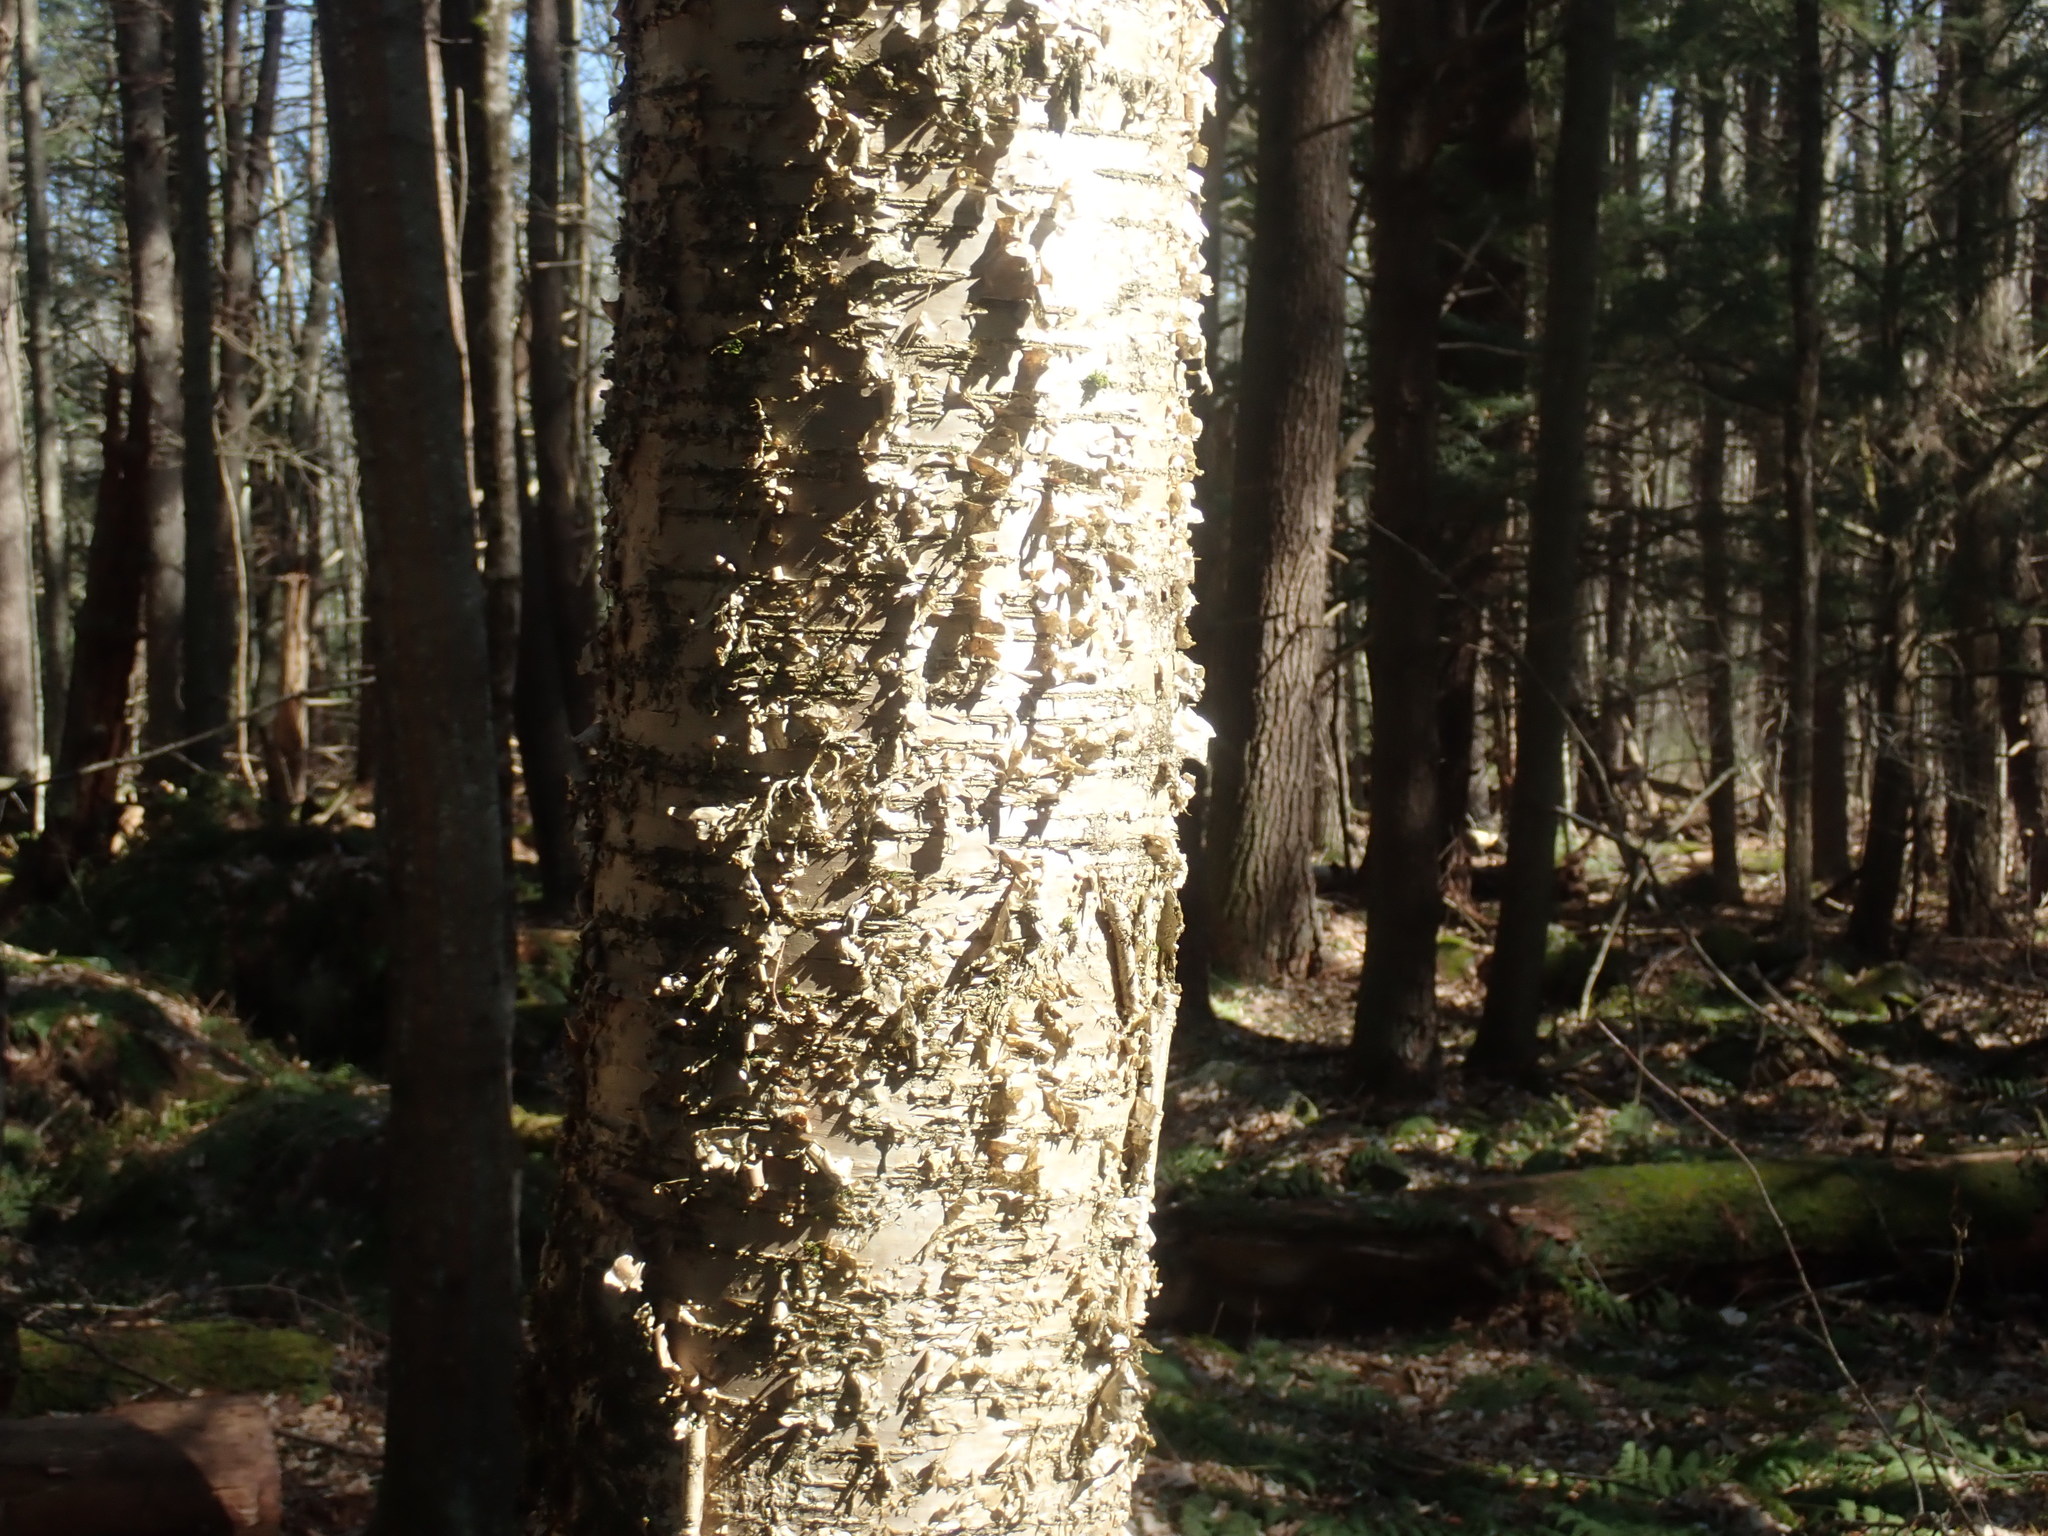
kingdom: Plantae
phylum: Tracheophyta
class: Magnoliopsida
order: Fagales
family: Betulaceae
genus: Betula
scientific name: Betula alleghaniensis
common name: Yellow birch
